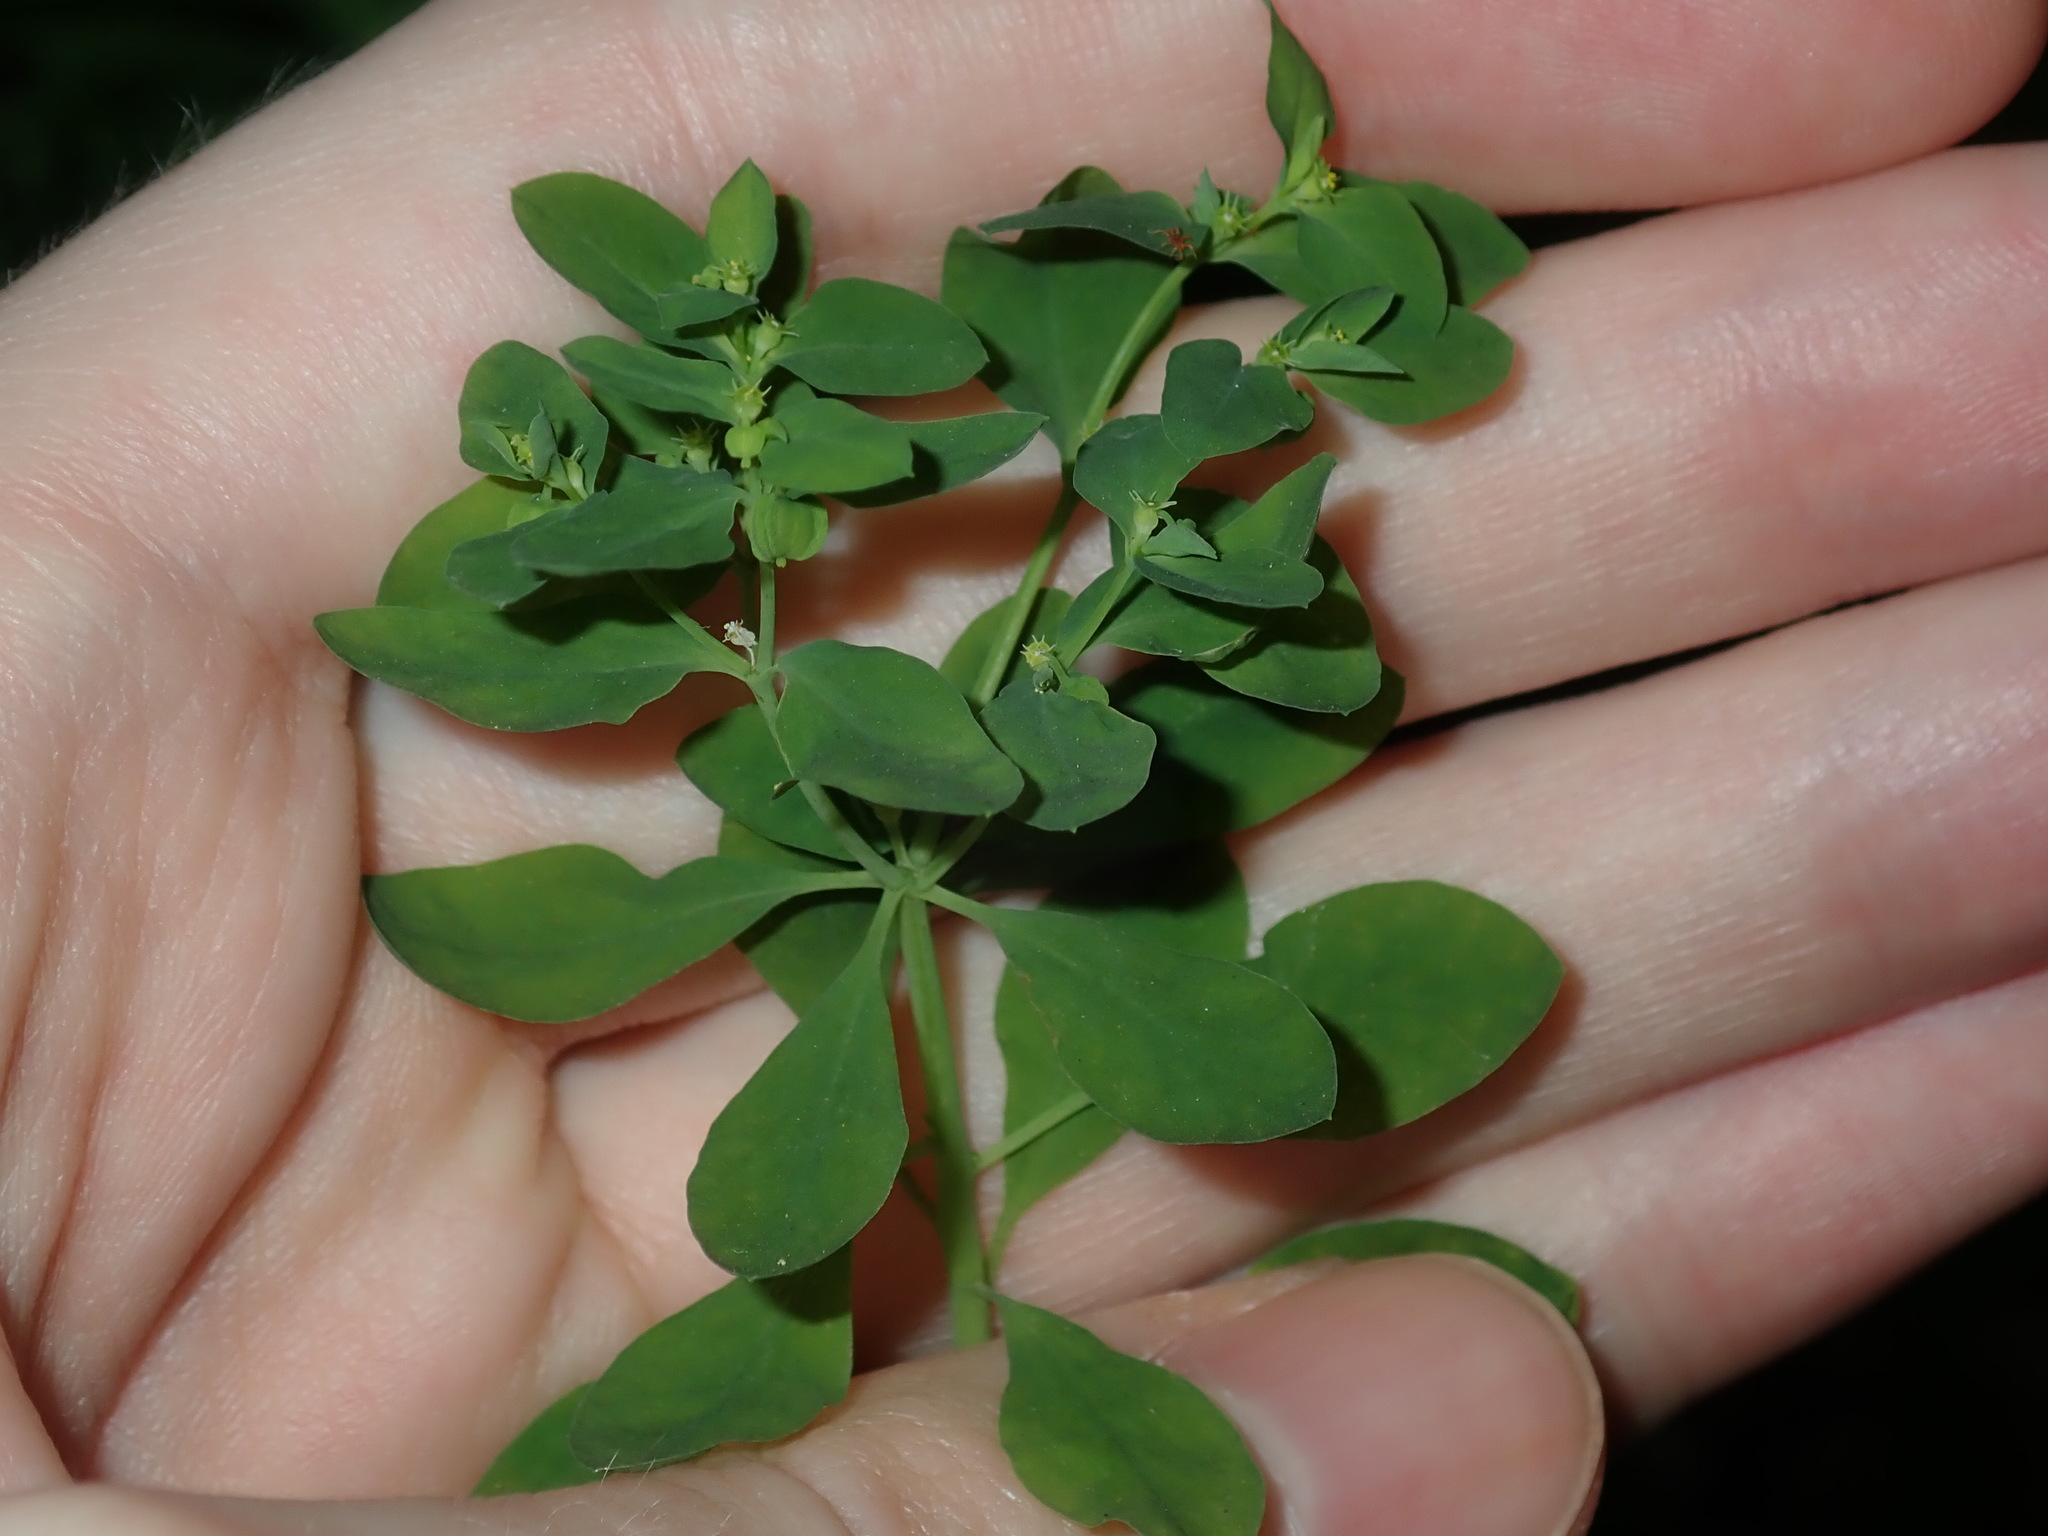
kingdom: Plantae
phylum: Tracheophyta
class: Magnoliopsida
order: Malpighiales
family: Euphorbiaceae
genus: Euphorbia
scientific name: Euphorbia peplus
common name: Petty spurge
